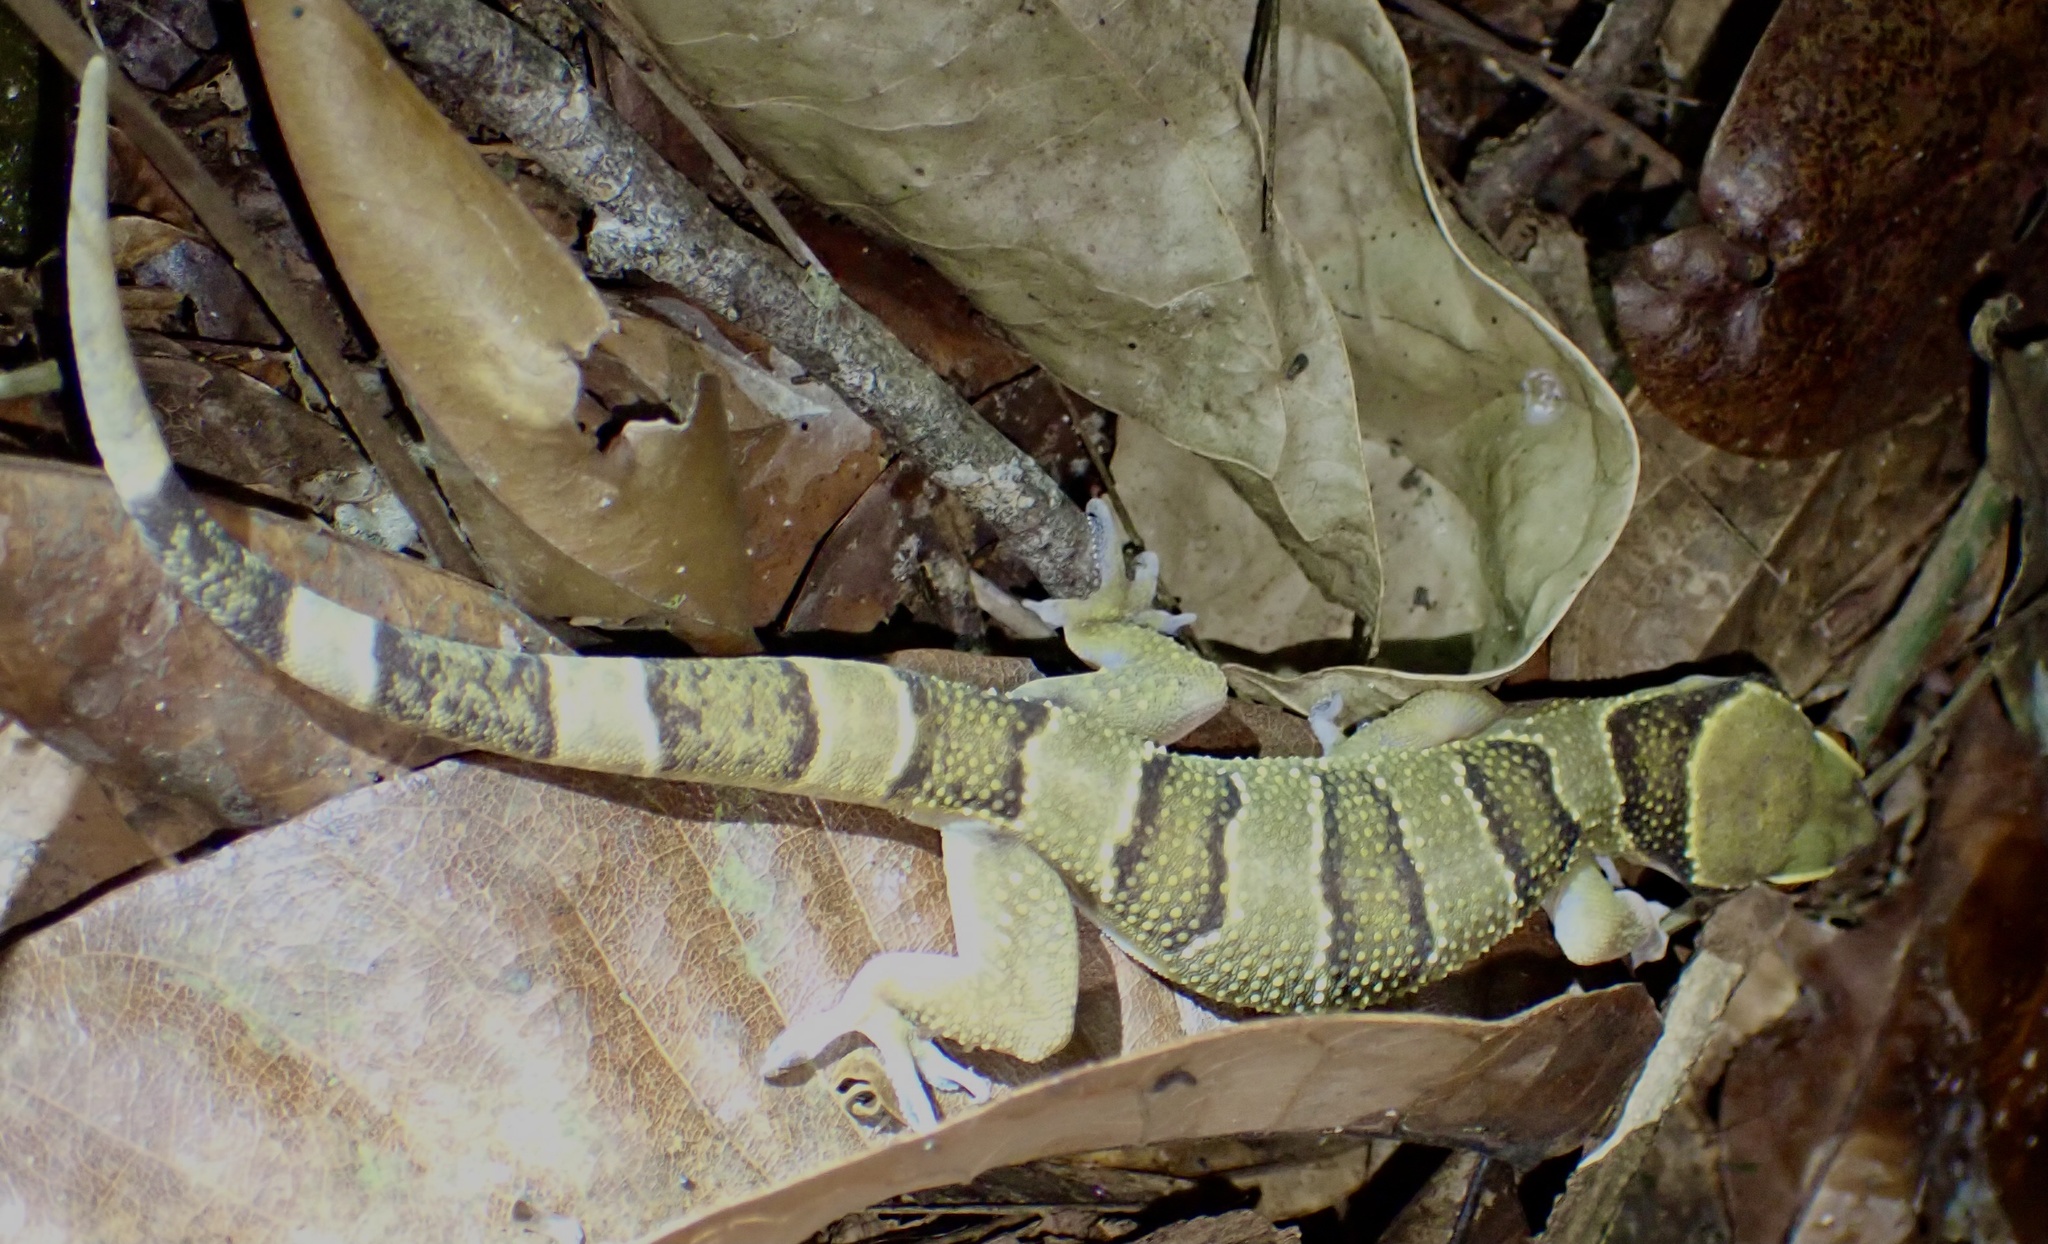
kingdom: Animalia
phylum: Chordata
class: Squamata
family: Gekkonidae
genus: Hemidactylus
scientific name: Hemidactylus fasciatus
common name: Banded leaf-toed gecko
